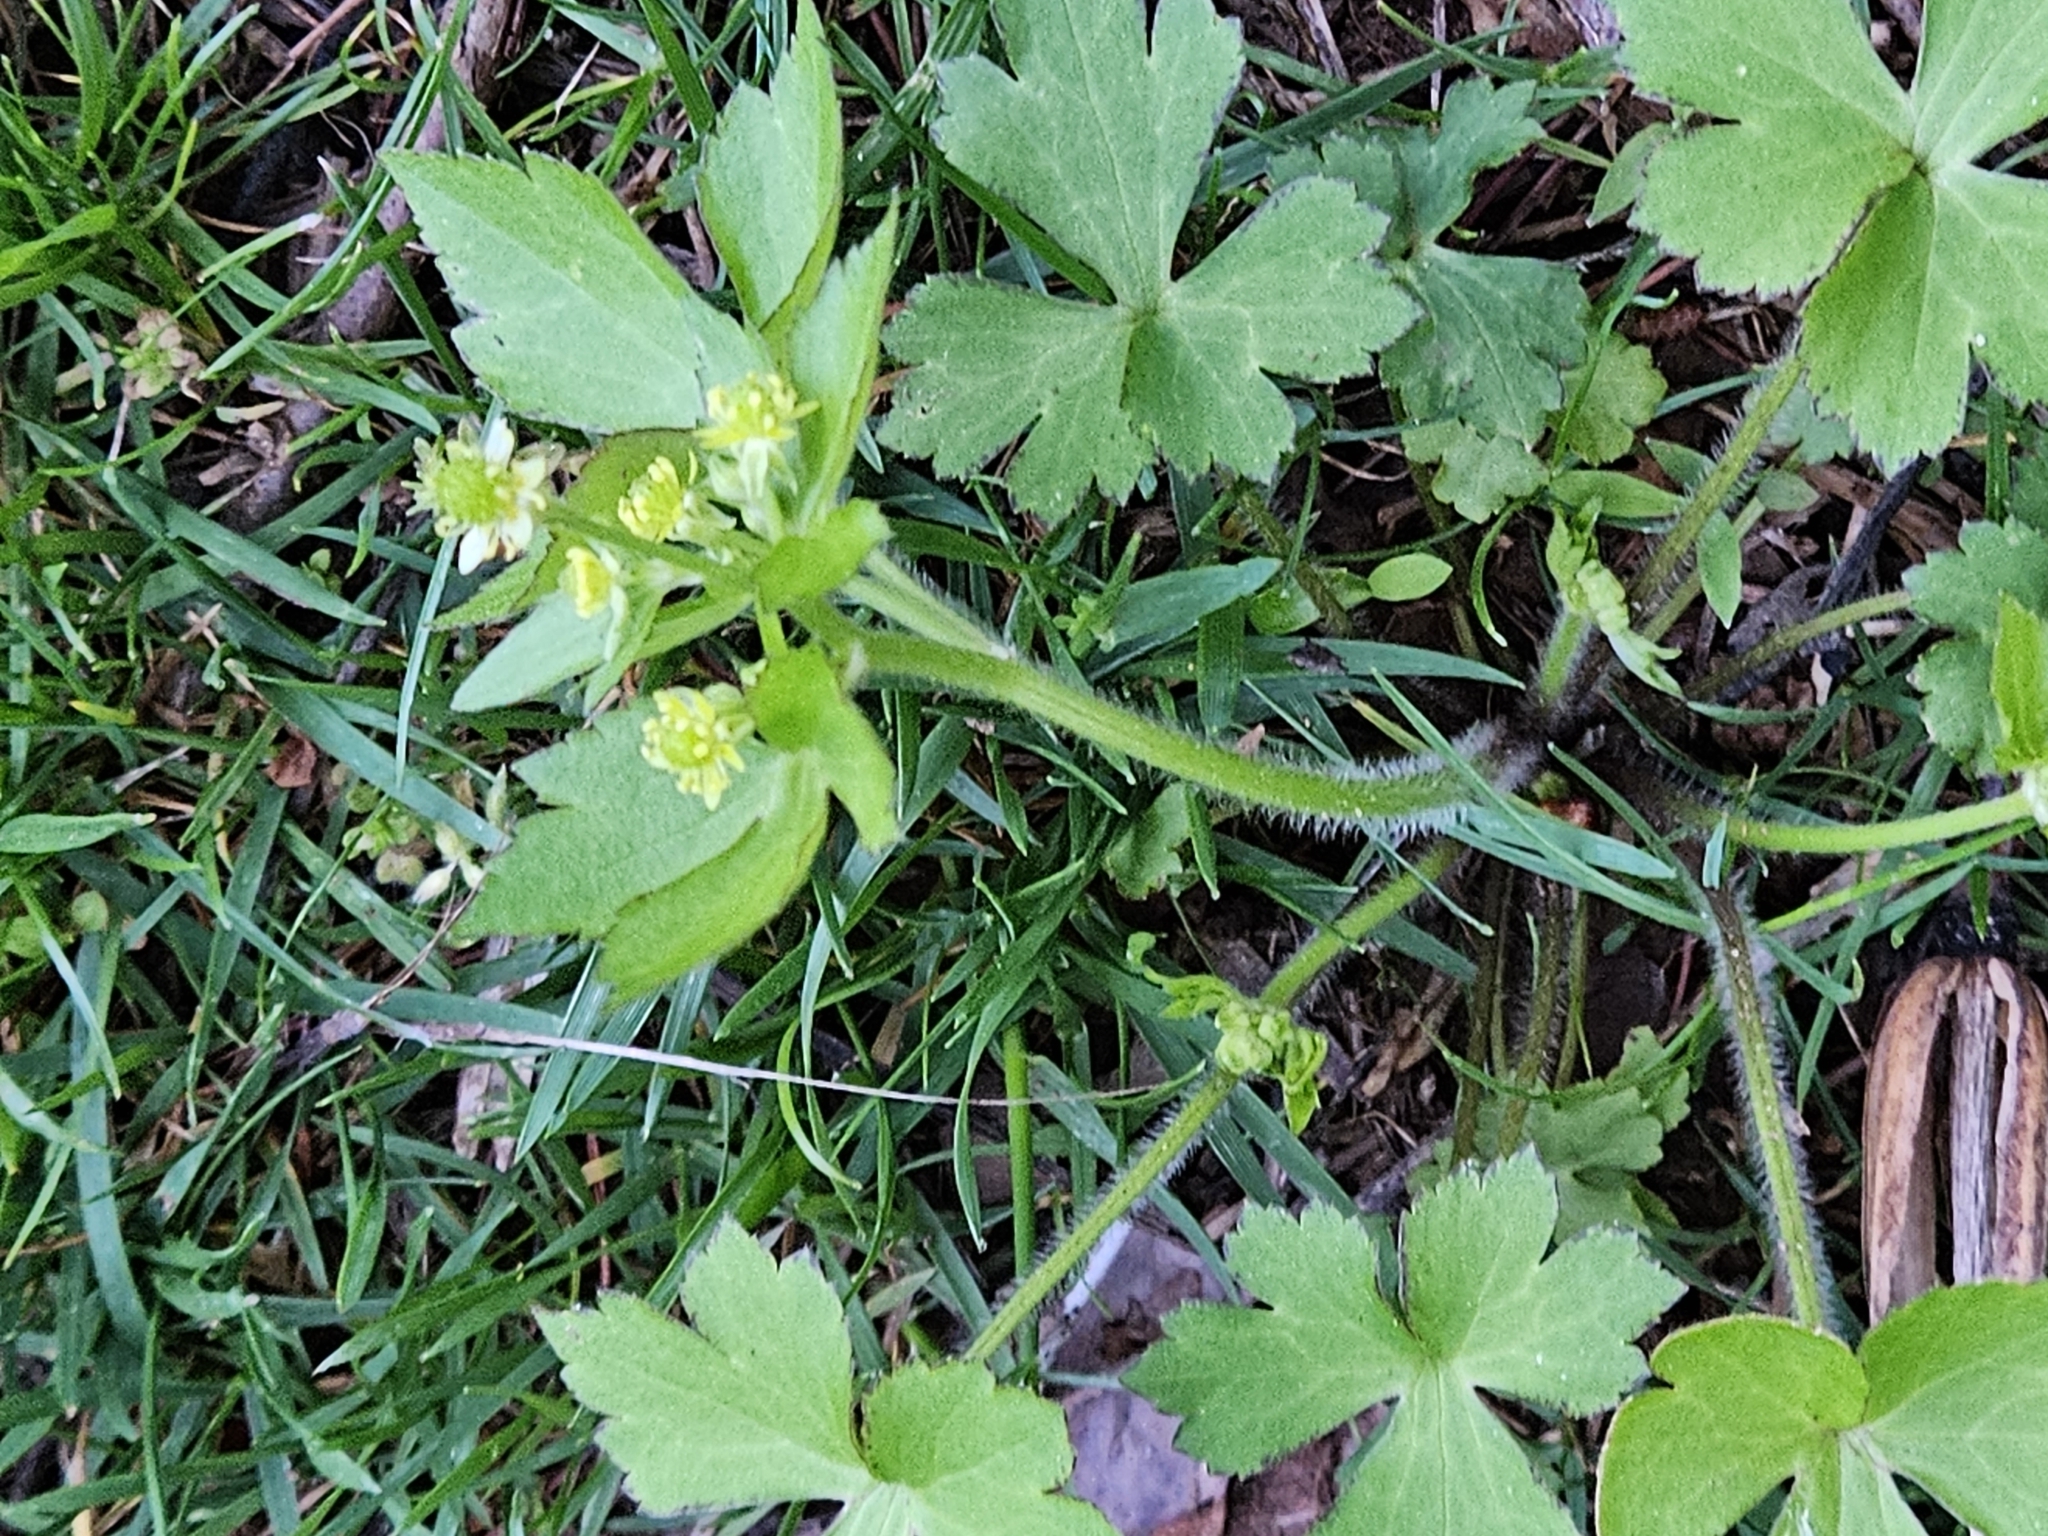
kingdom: Plantae
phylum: Tracheophyta
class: Magnoliopsida
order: Ranunculales
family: Ranunculaceae
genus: Ranunculus
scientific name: Ranunculus recurvatus
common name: Blisterwort
